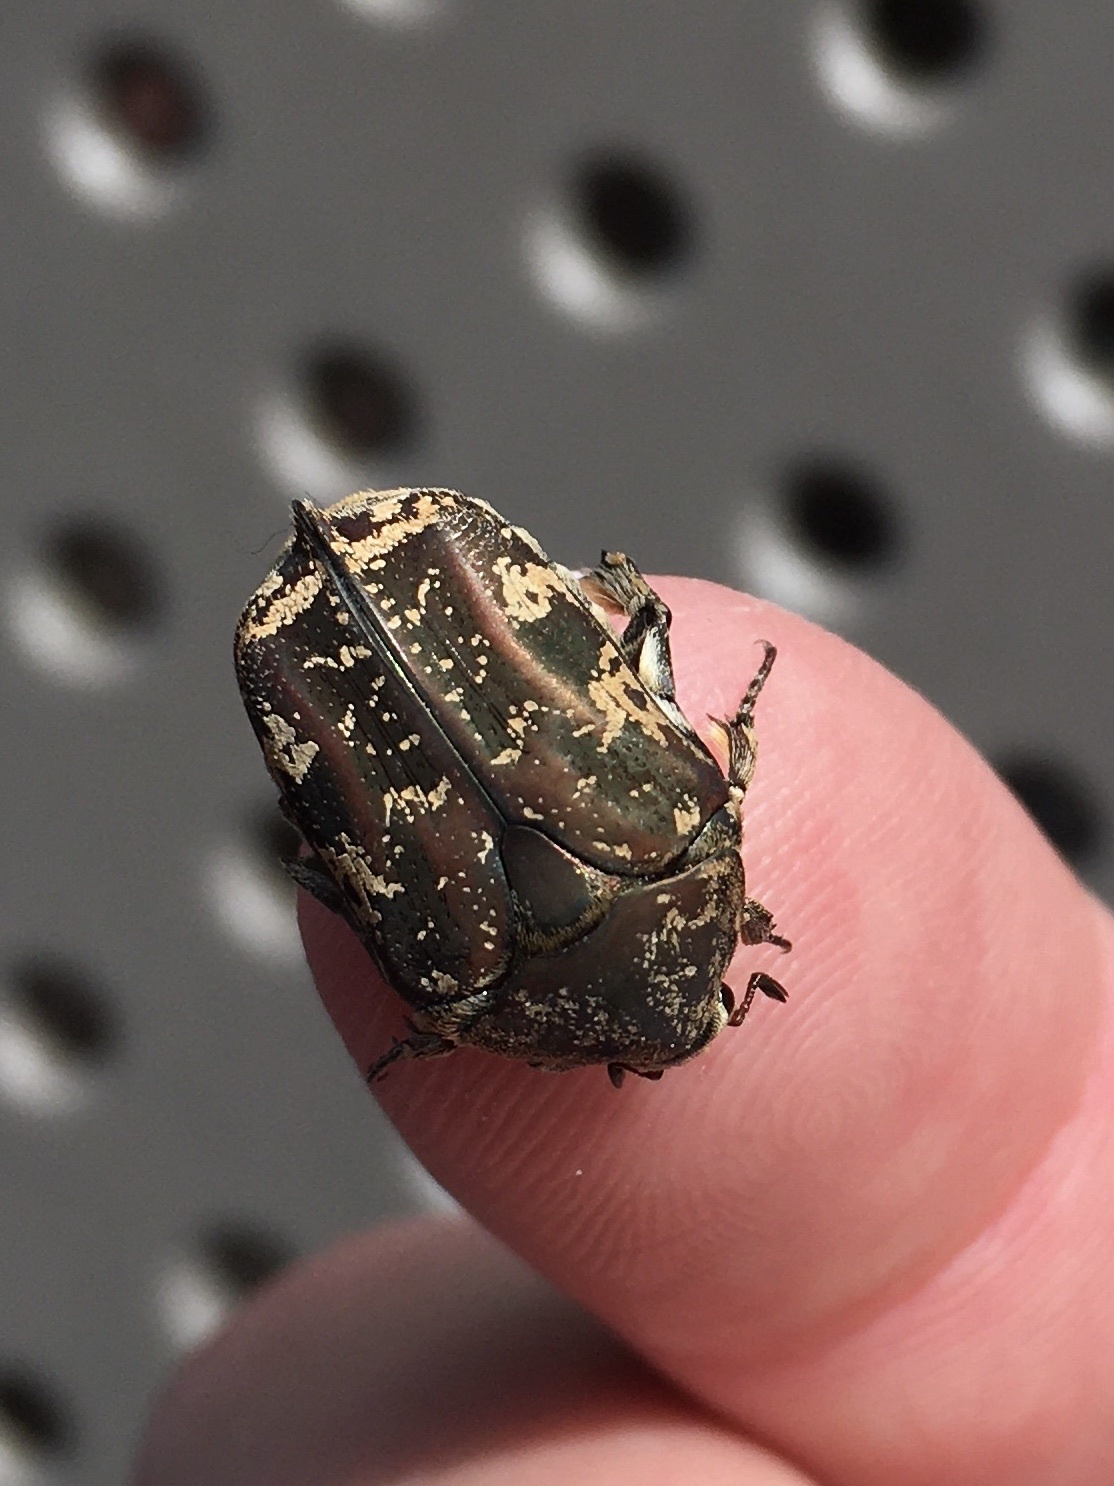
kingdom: Animalia
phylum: Arthropoda
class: Insecta
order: Coleoptera
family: Scarabaeidae
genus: Protaetia
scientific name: Protaetia fusca
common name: Mango flower beetle
